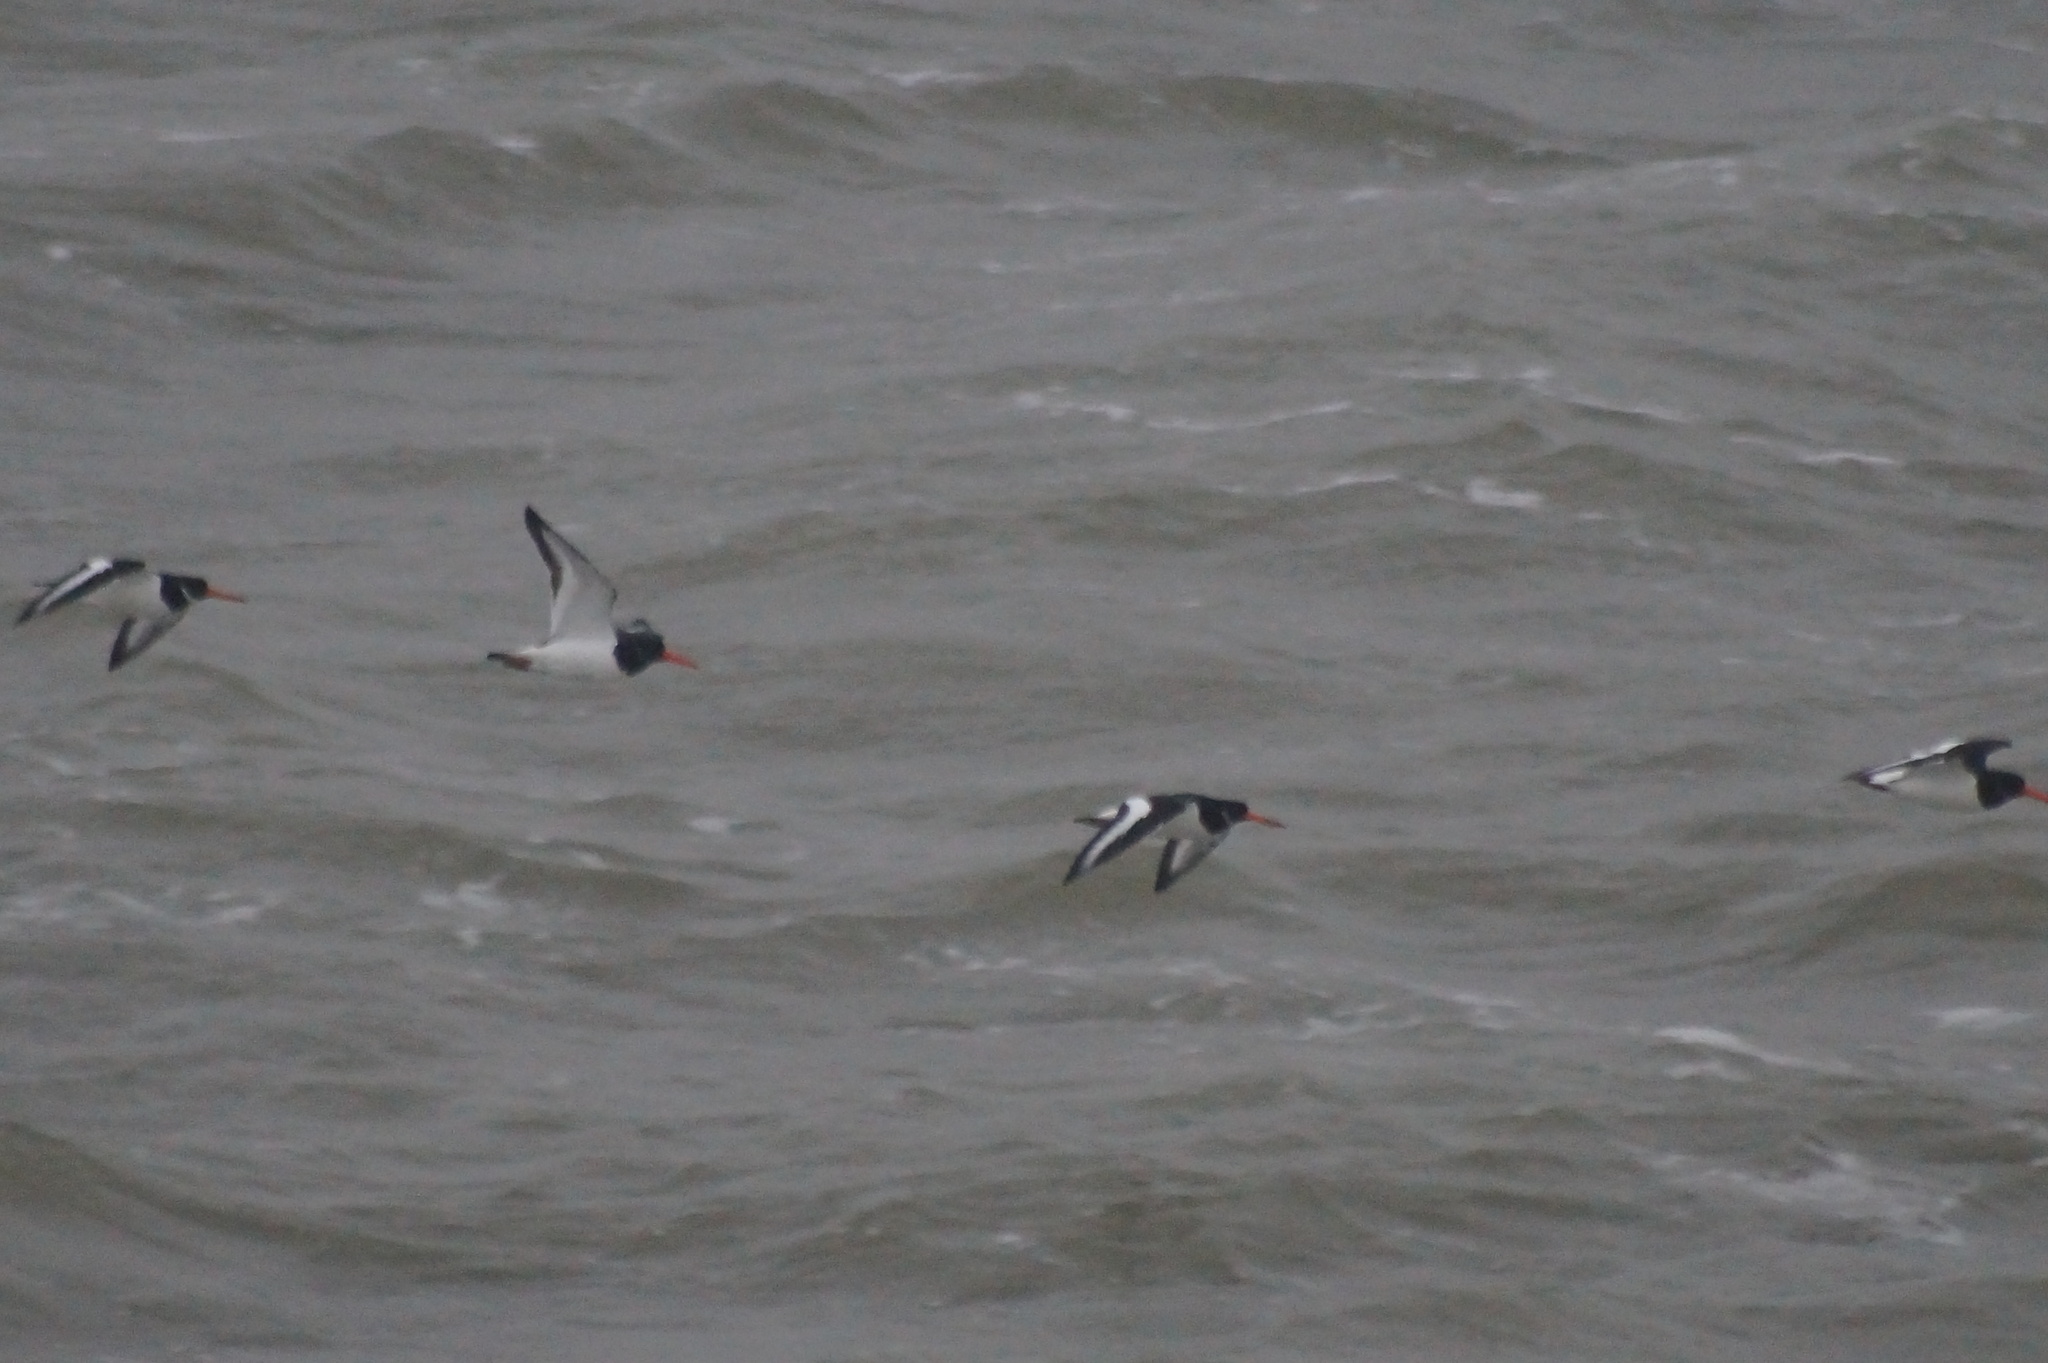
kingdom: Animalia
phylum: Chordata
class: Aves
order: Charadriiformes
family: Haematopodidae
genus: Haematopus
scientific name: Haematopus ostralegus
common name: Eurasian oystercatcher
